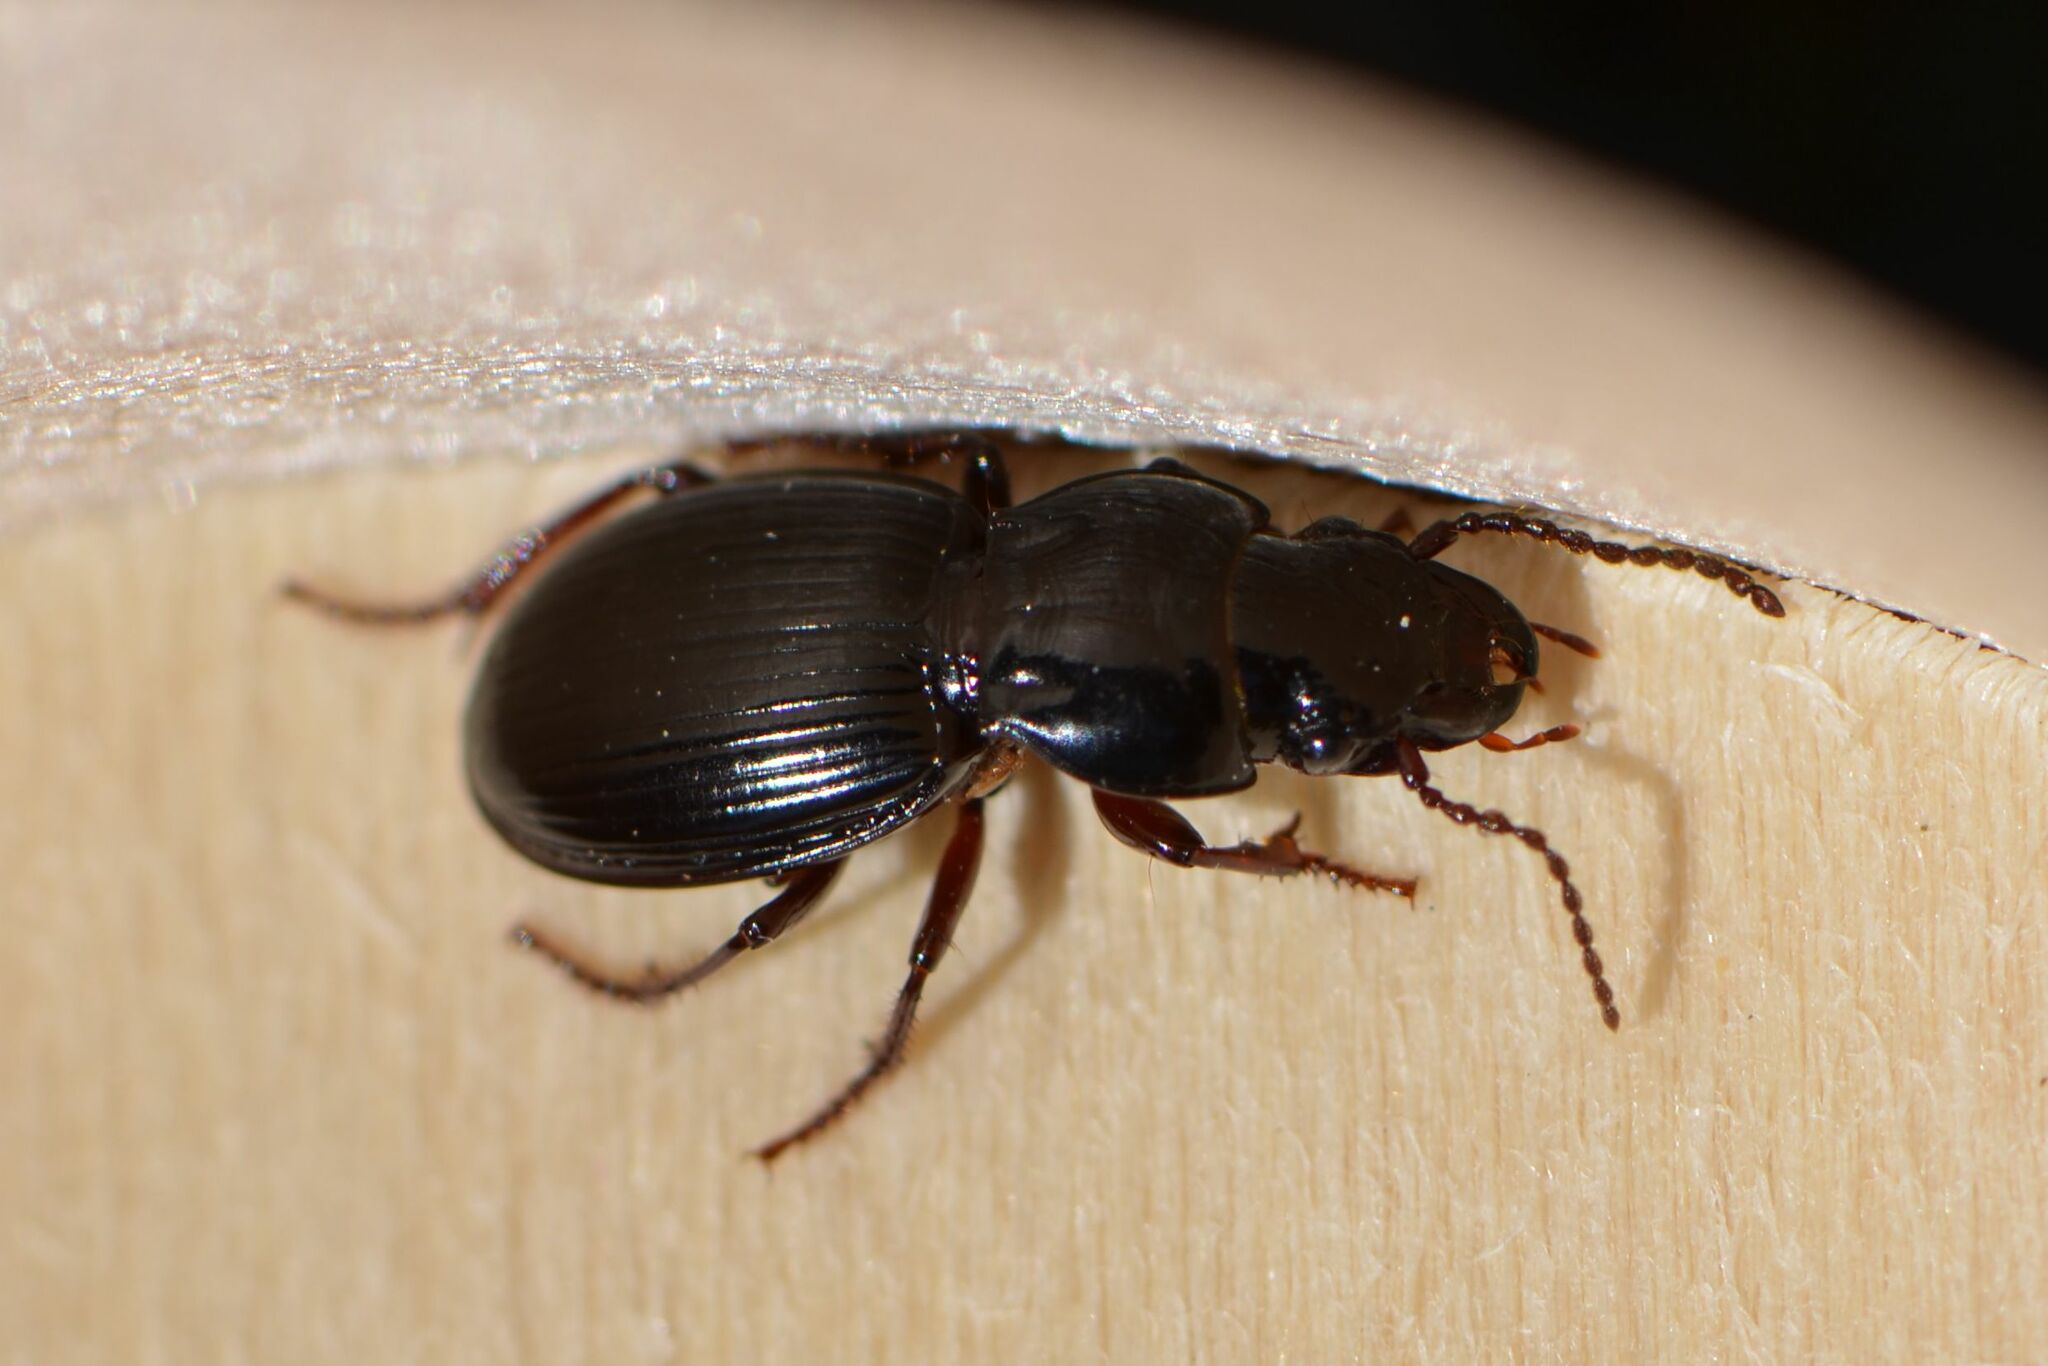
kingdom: Animalia
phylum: Arthropoda
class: Insecta
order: Coleoptera
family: Carabidae
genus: Molops
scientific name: Molops piceus
